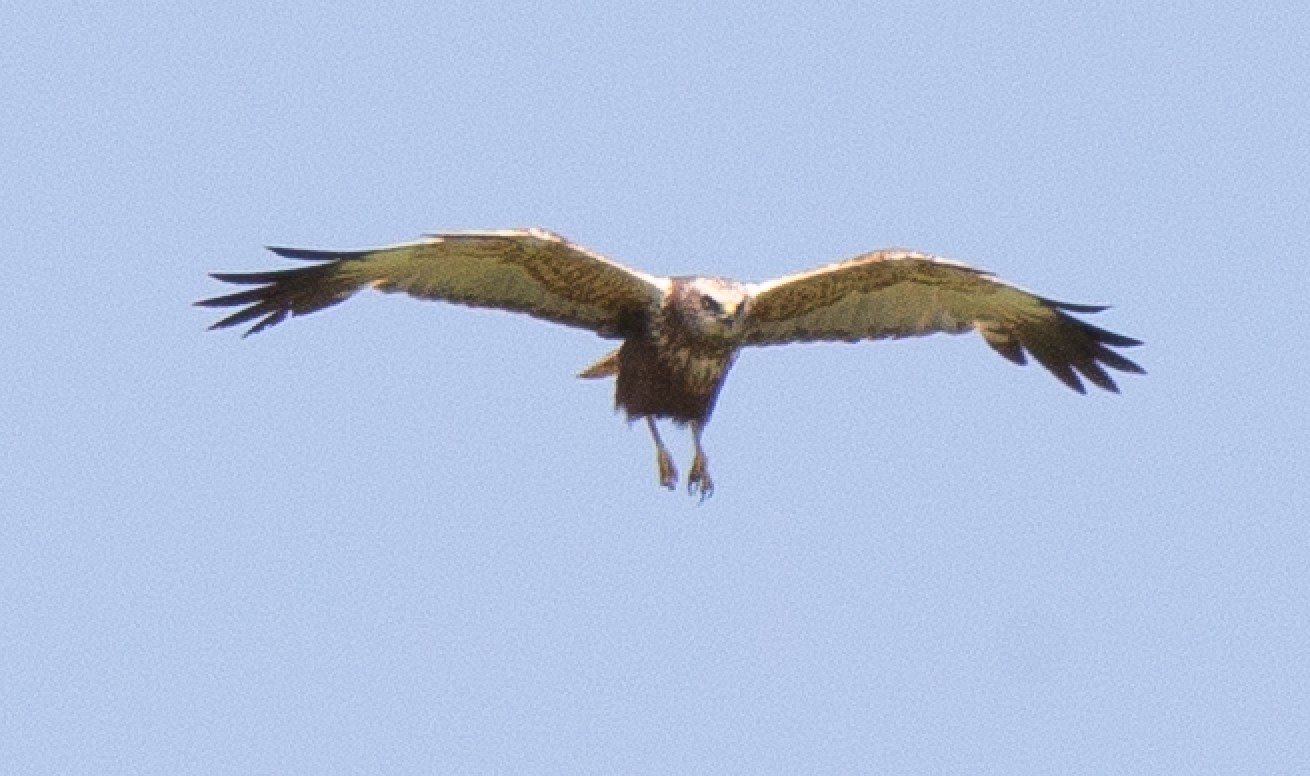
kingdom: Animalia
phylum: Chordata
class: Aves
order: Accipitriformes
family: Accipitridae
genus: Circus
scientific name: Circus aeruginosus
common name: Western marsh harrier
